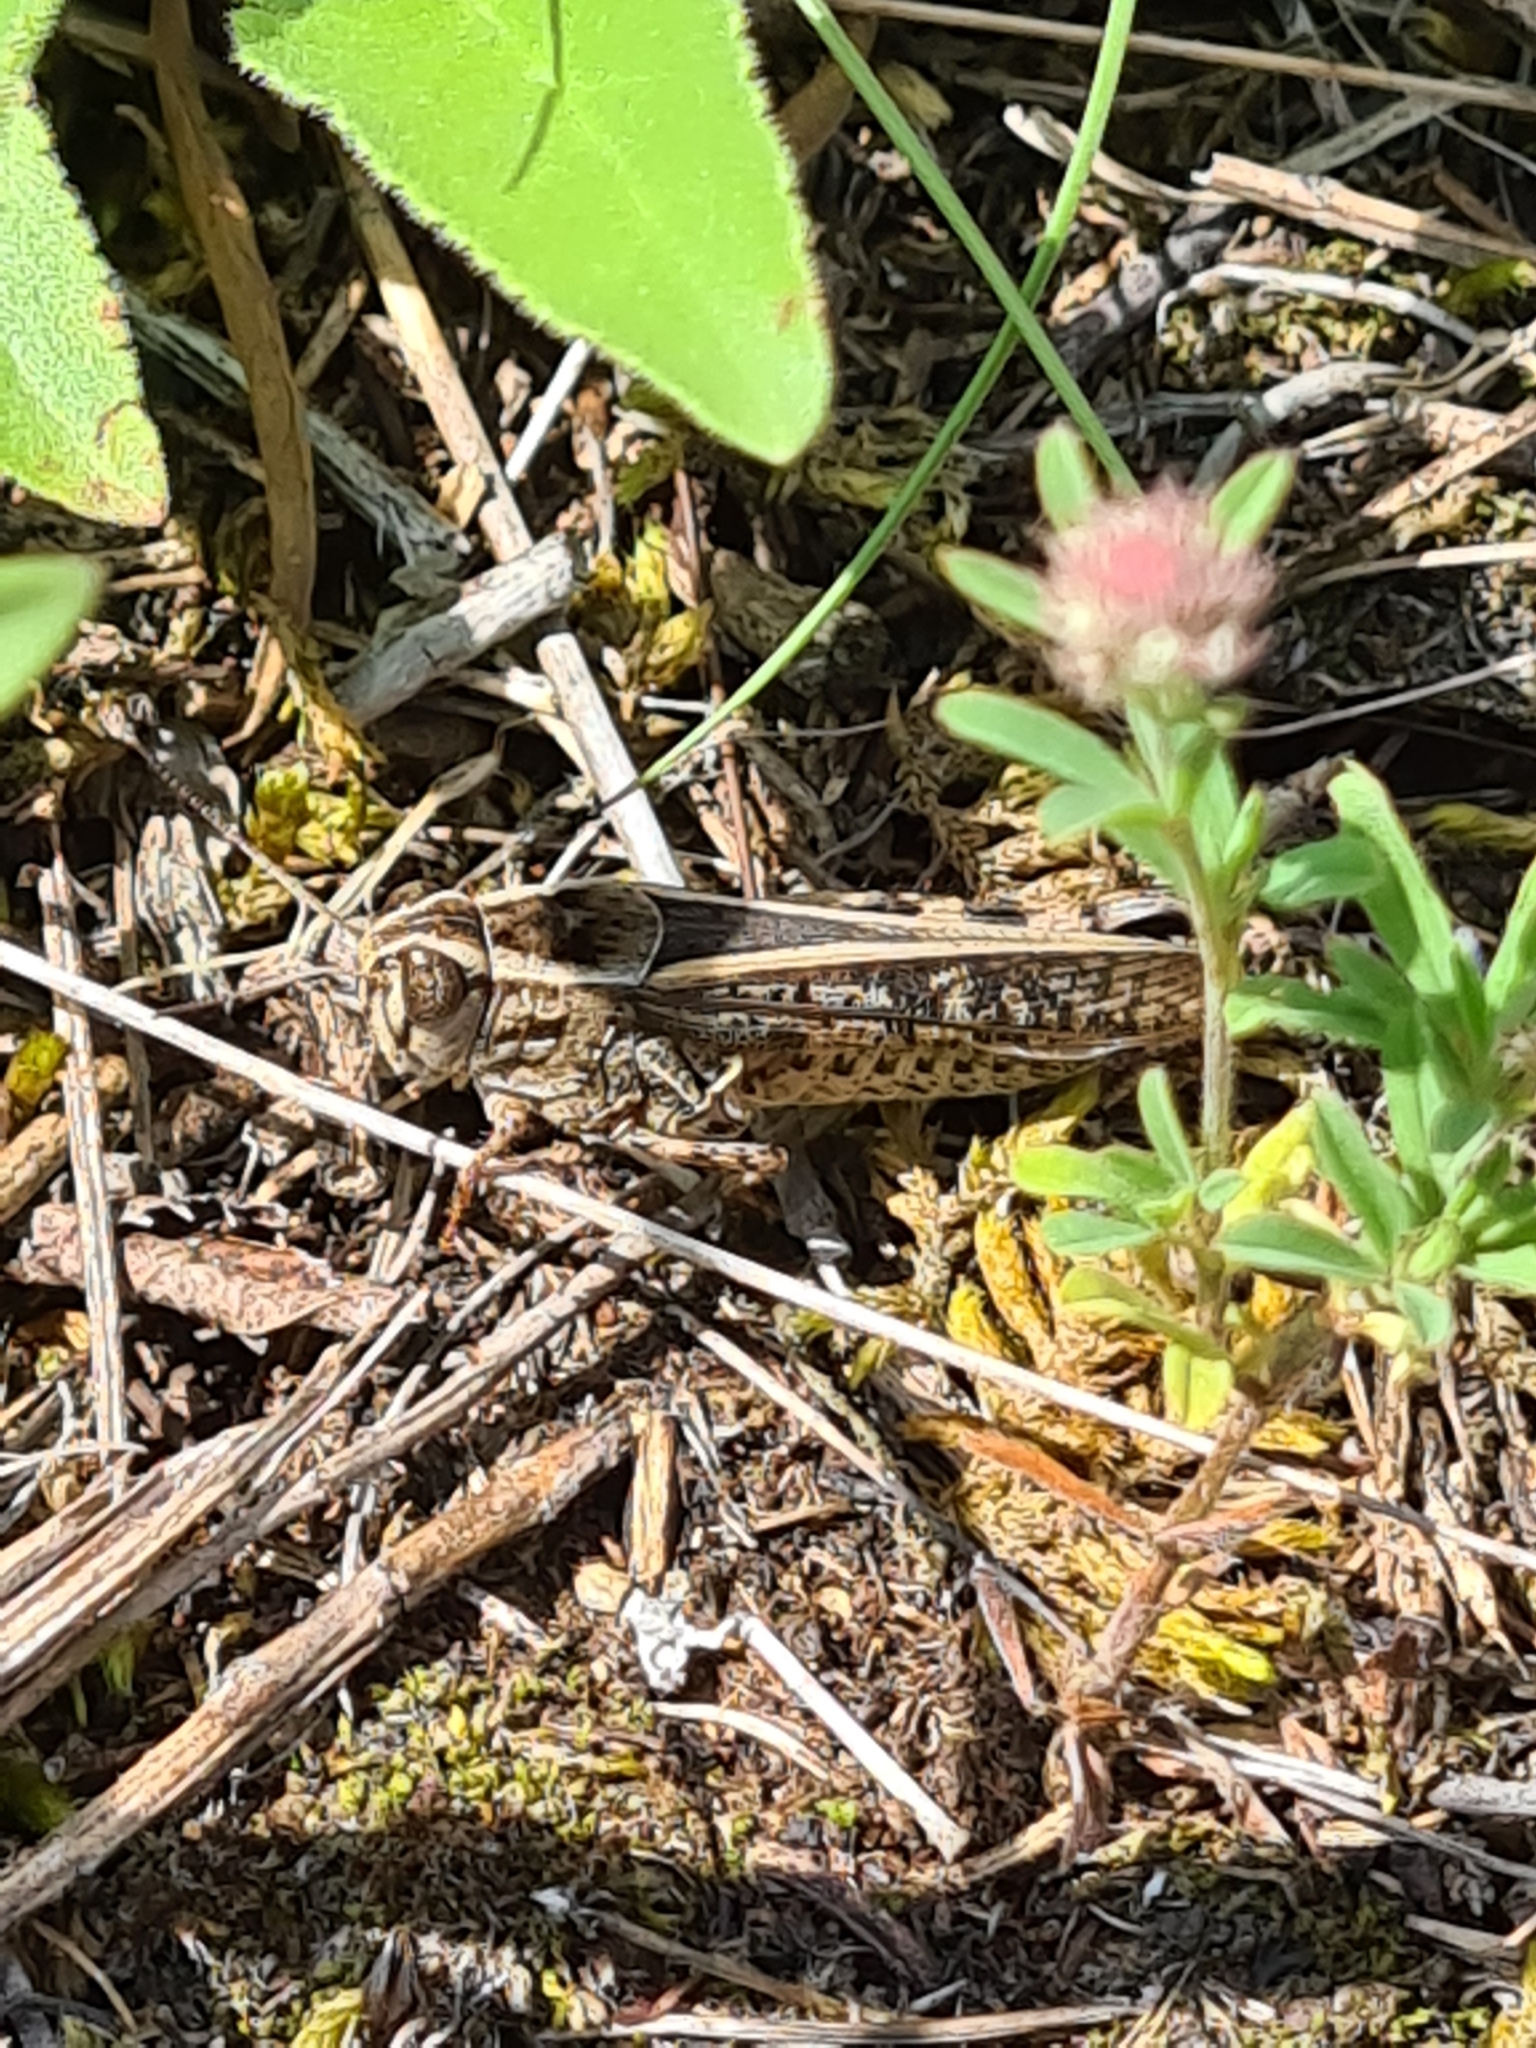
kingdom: Animalia
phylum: Arthropoda
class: Insecta
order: Orthoptera
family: Acrididae
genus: Calliptamus
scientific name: Calliptamus italicus
